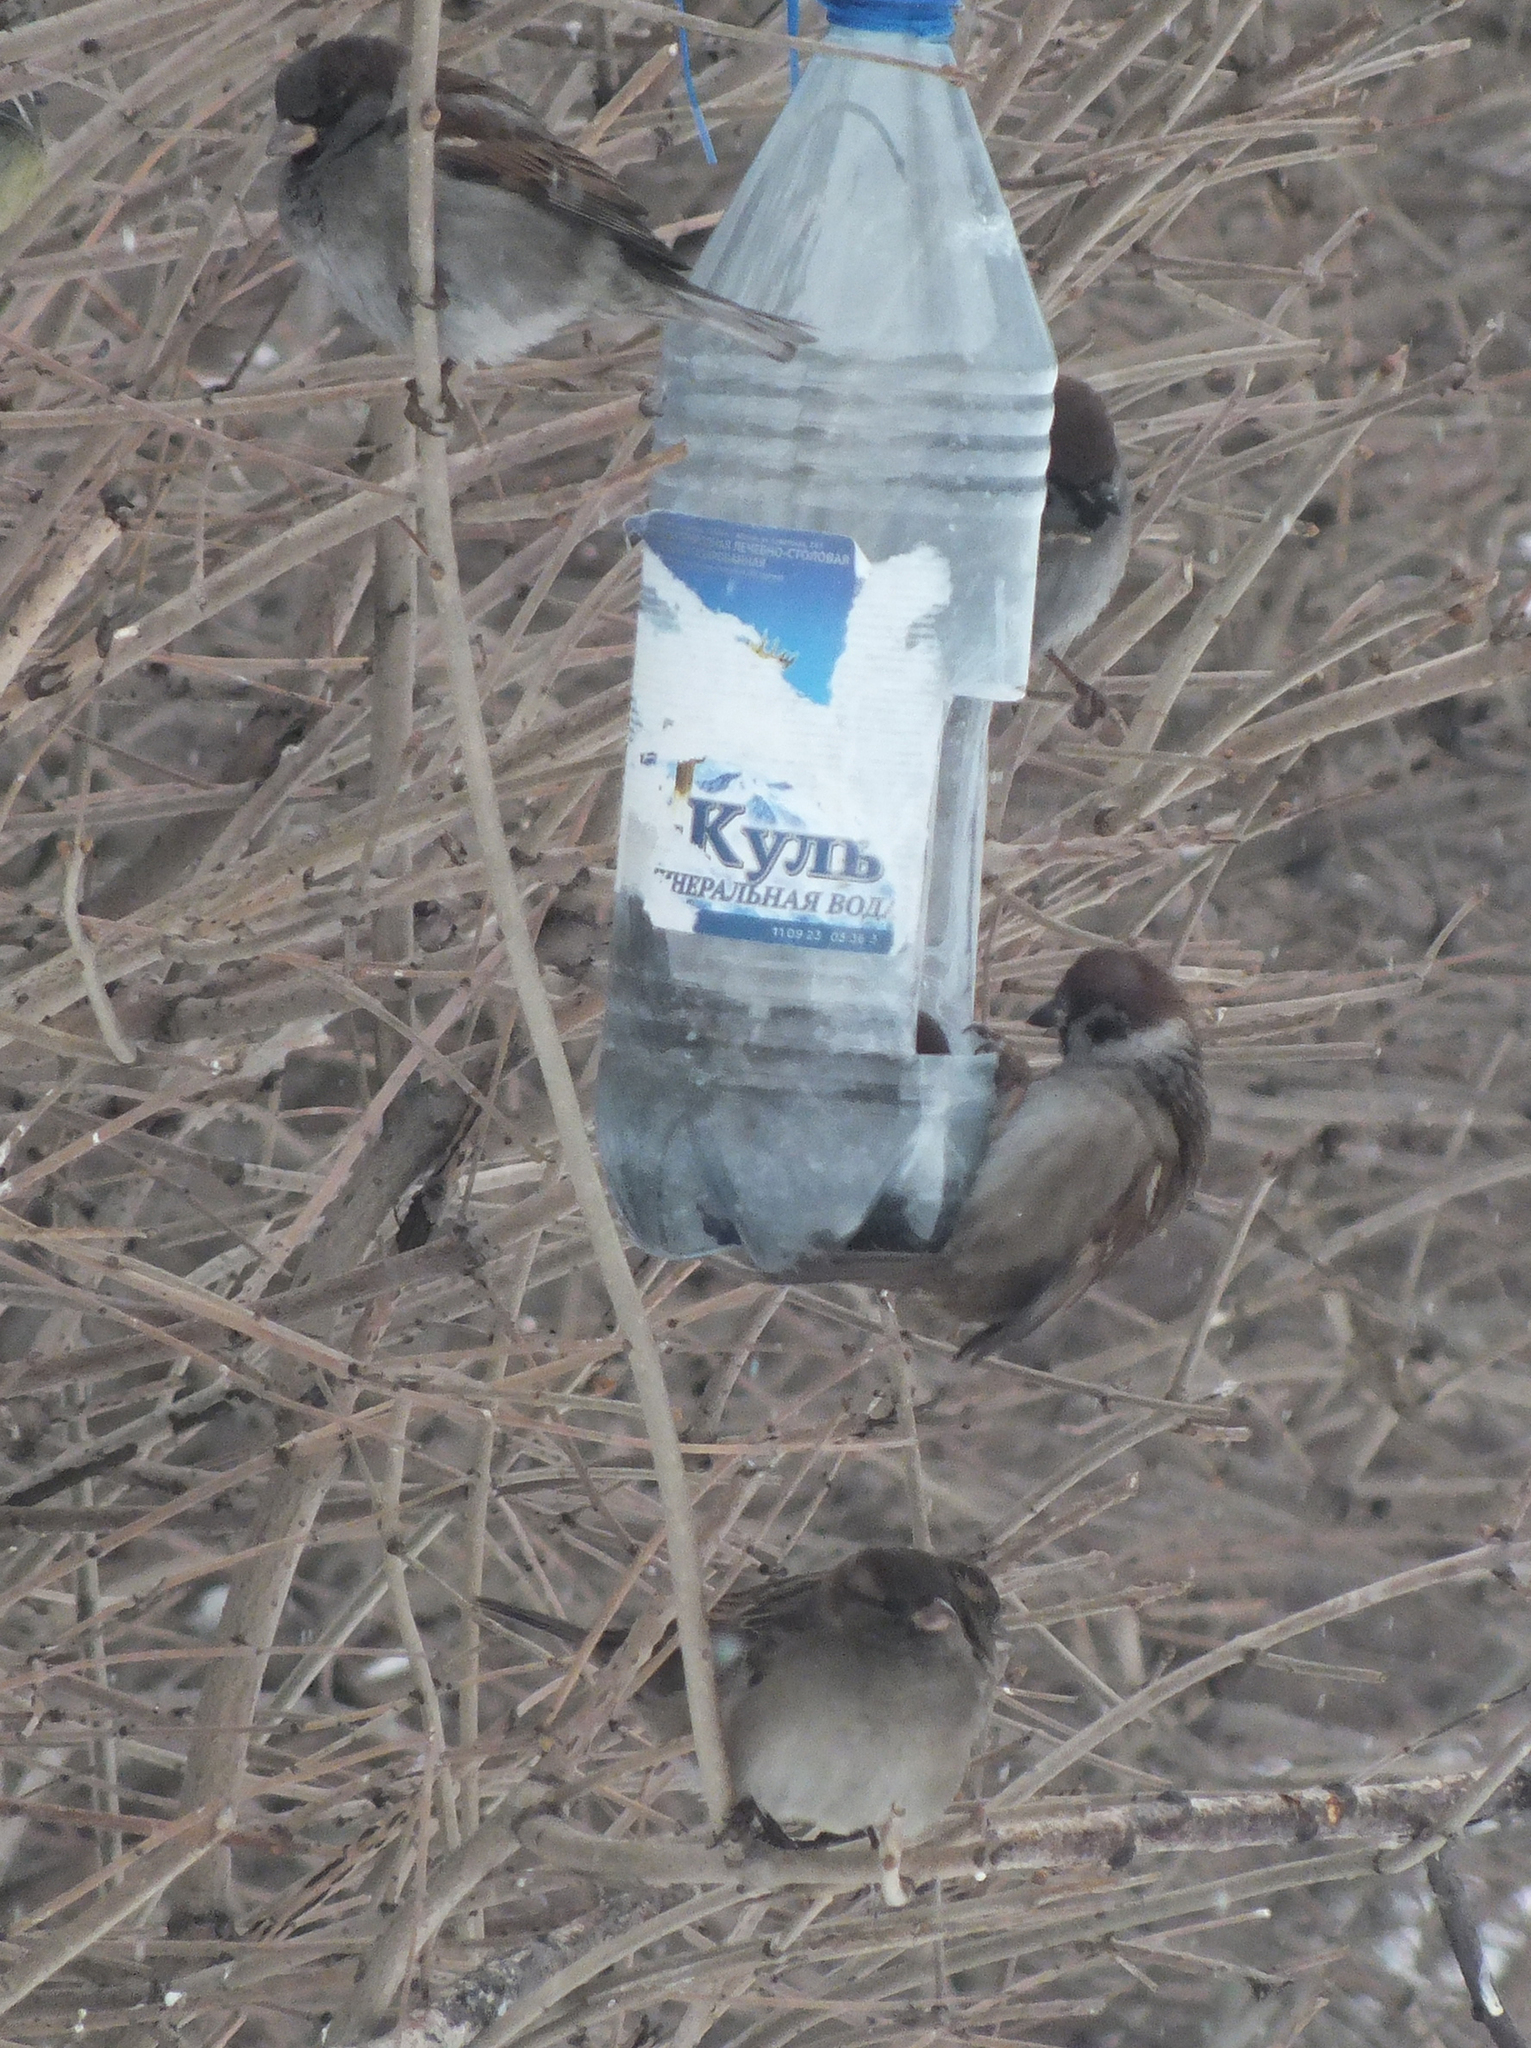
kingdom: Animalia
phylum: Chordata
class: Aves
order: Passeriformes
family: Passeridae
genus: Passer
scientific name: Passer montanus
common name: Eurasian tree sparrow
